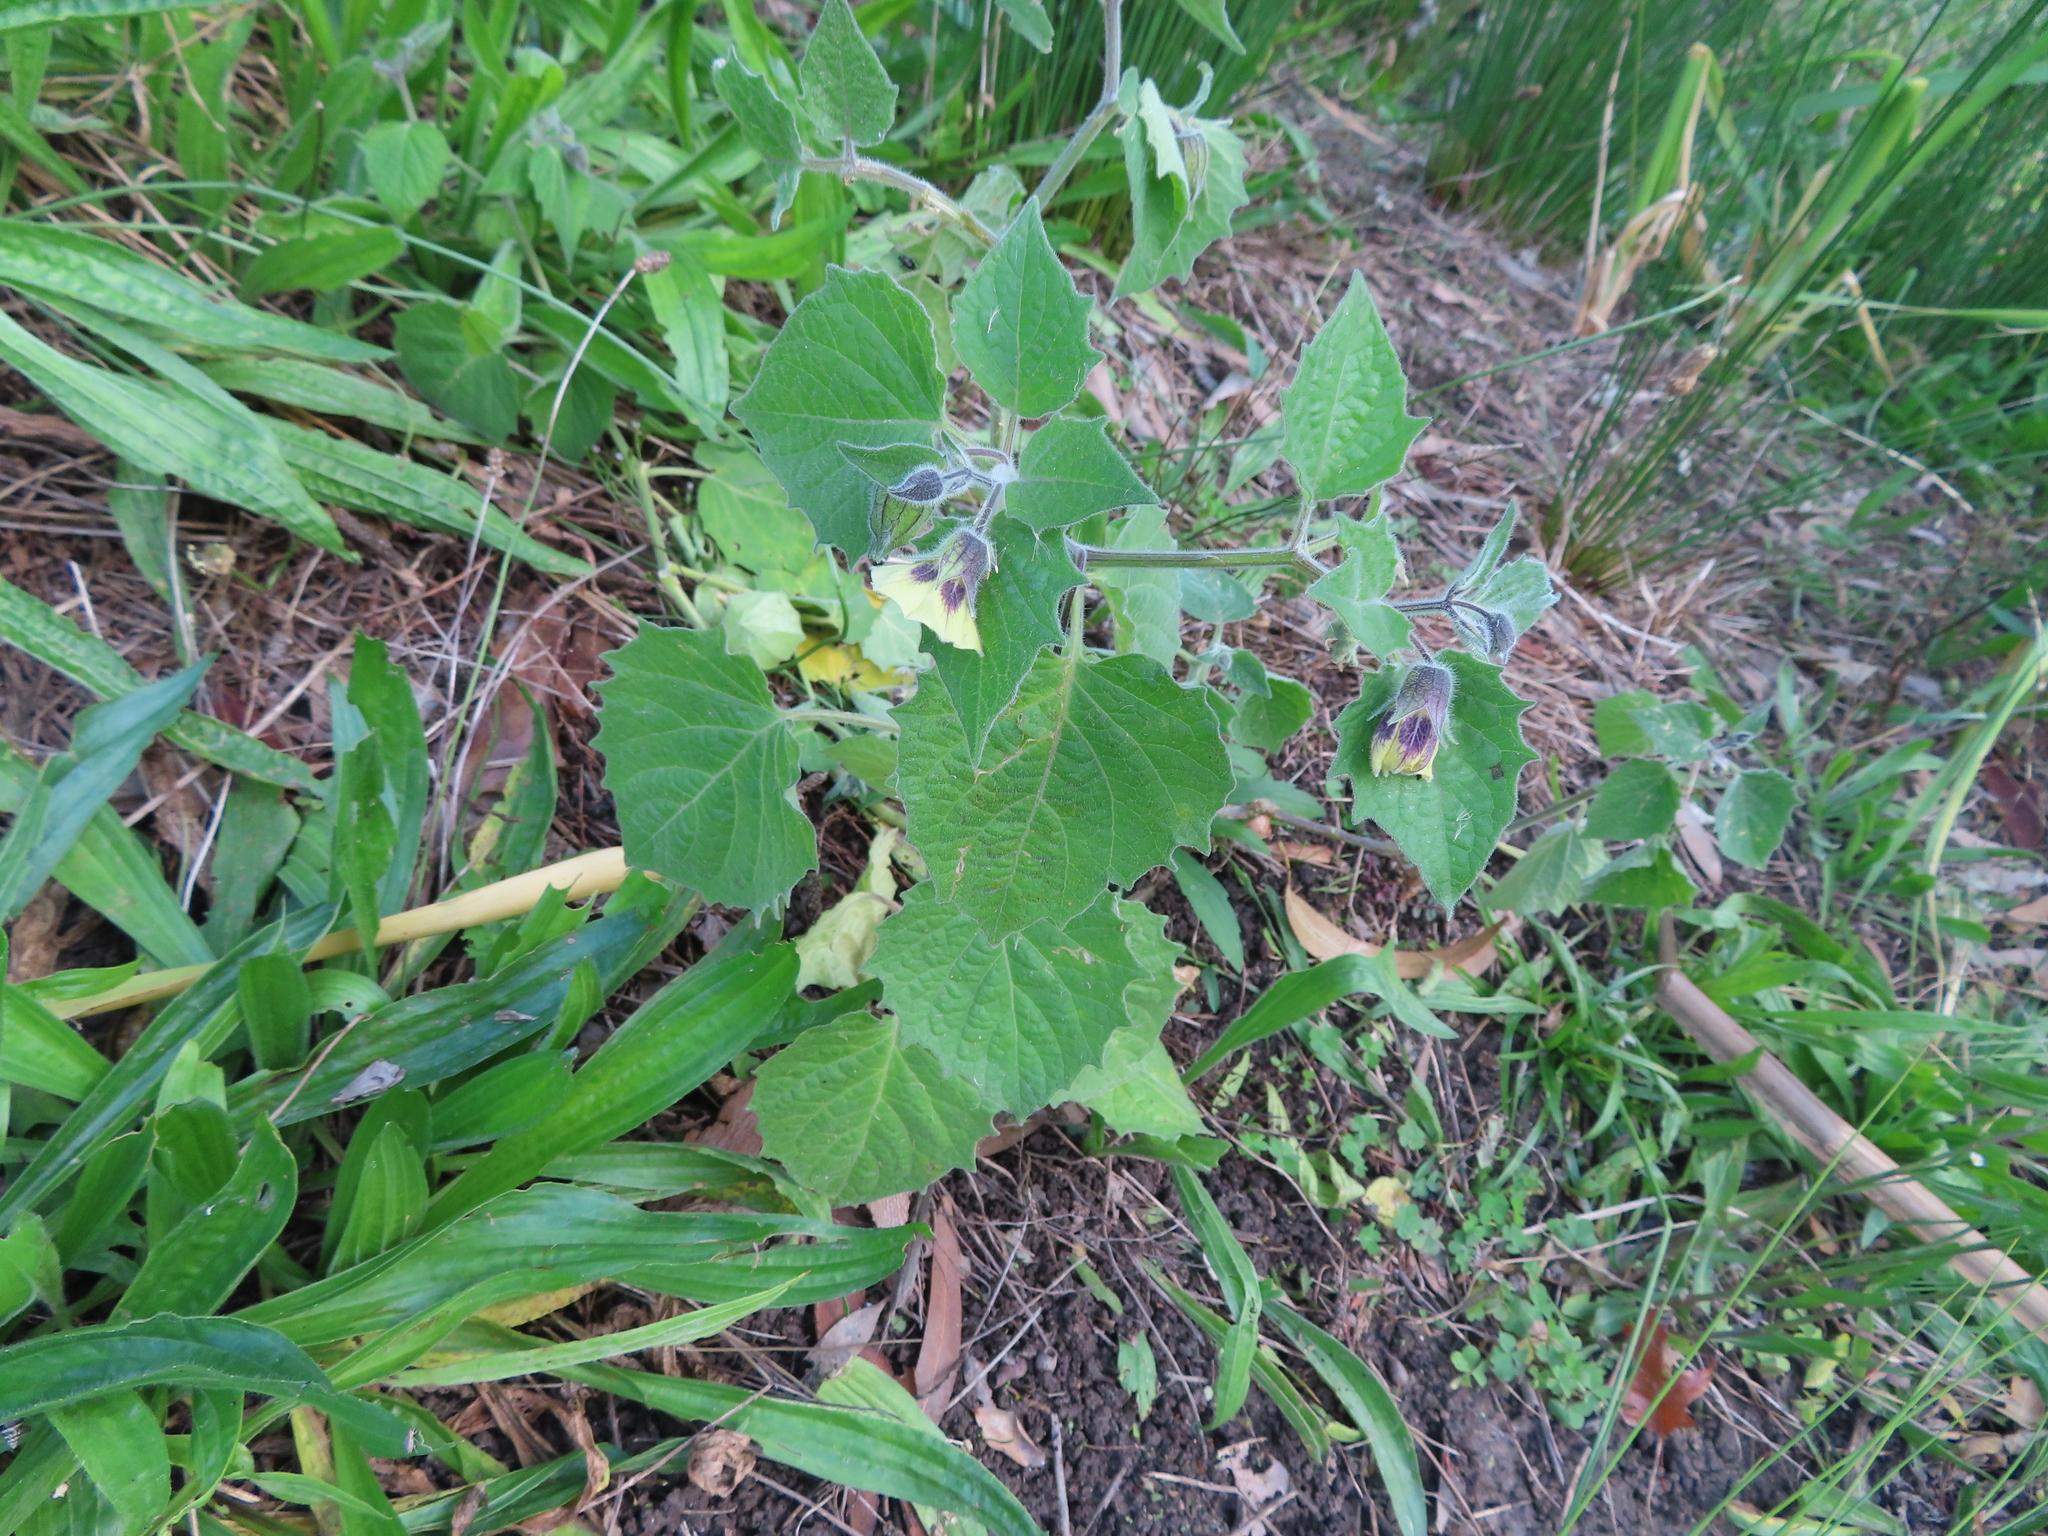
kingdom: Plantae
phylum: Tracheophyta
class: Magnoliopsida
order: Solanales
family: Solanaceae
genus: Physalis
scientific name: Physalis peruviana
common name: Cape-gooseberry
